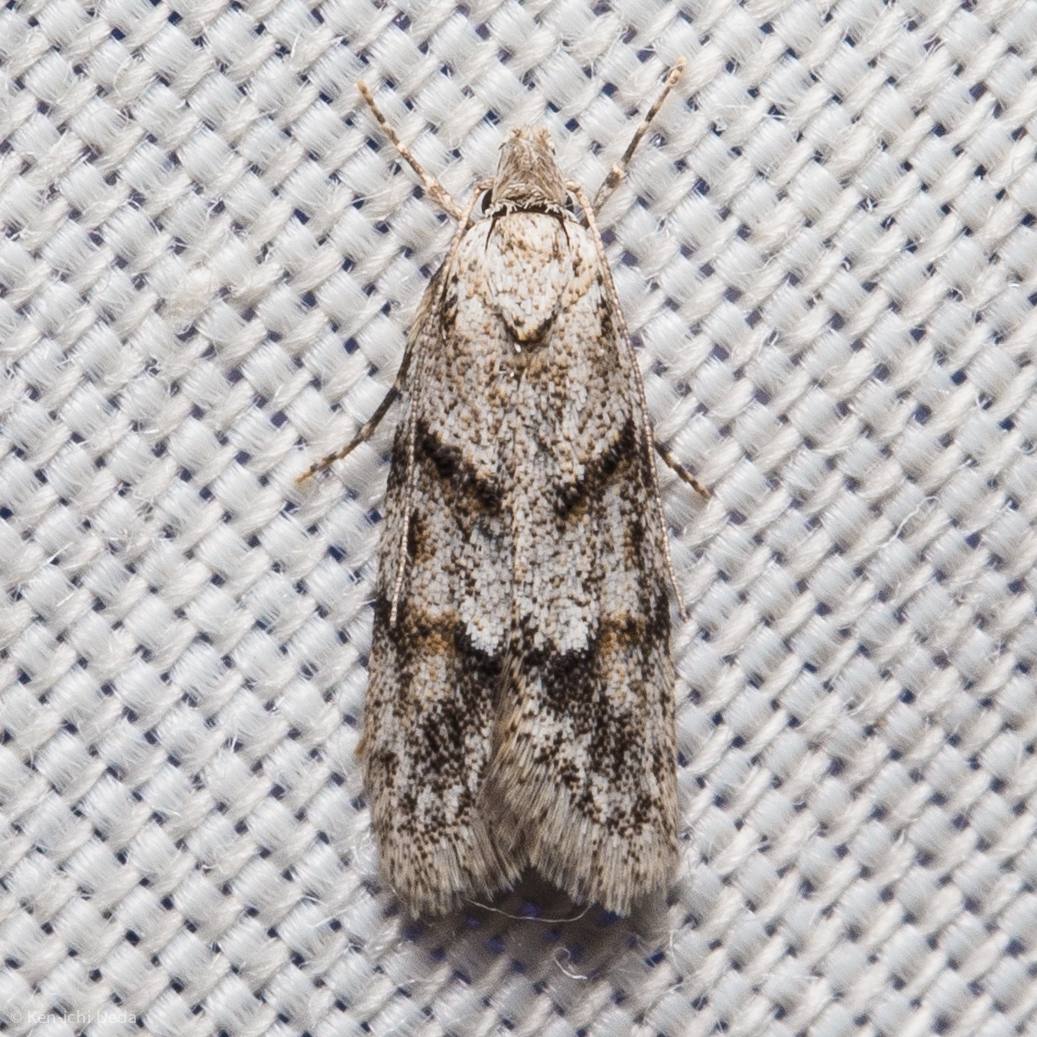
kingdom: Animalia
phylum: Arthropoda
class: Insecta
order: Lepidoptera
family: Autostichidae
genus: Symmoca
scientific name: Symmoca signatella
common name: Dockland obscure
